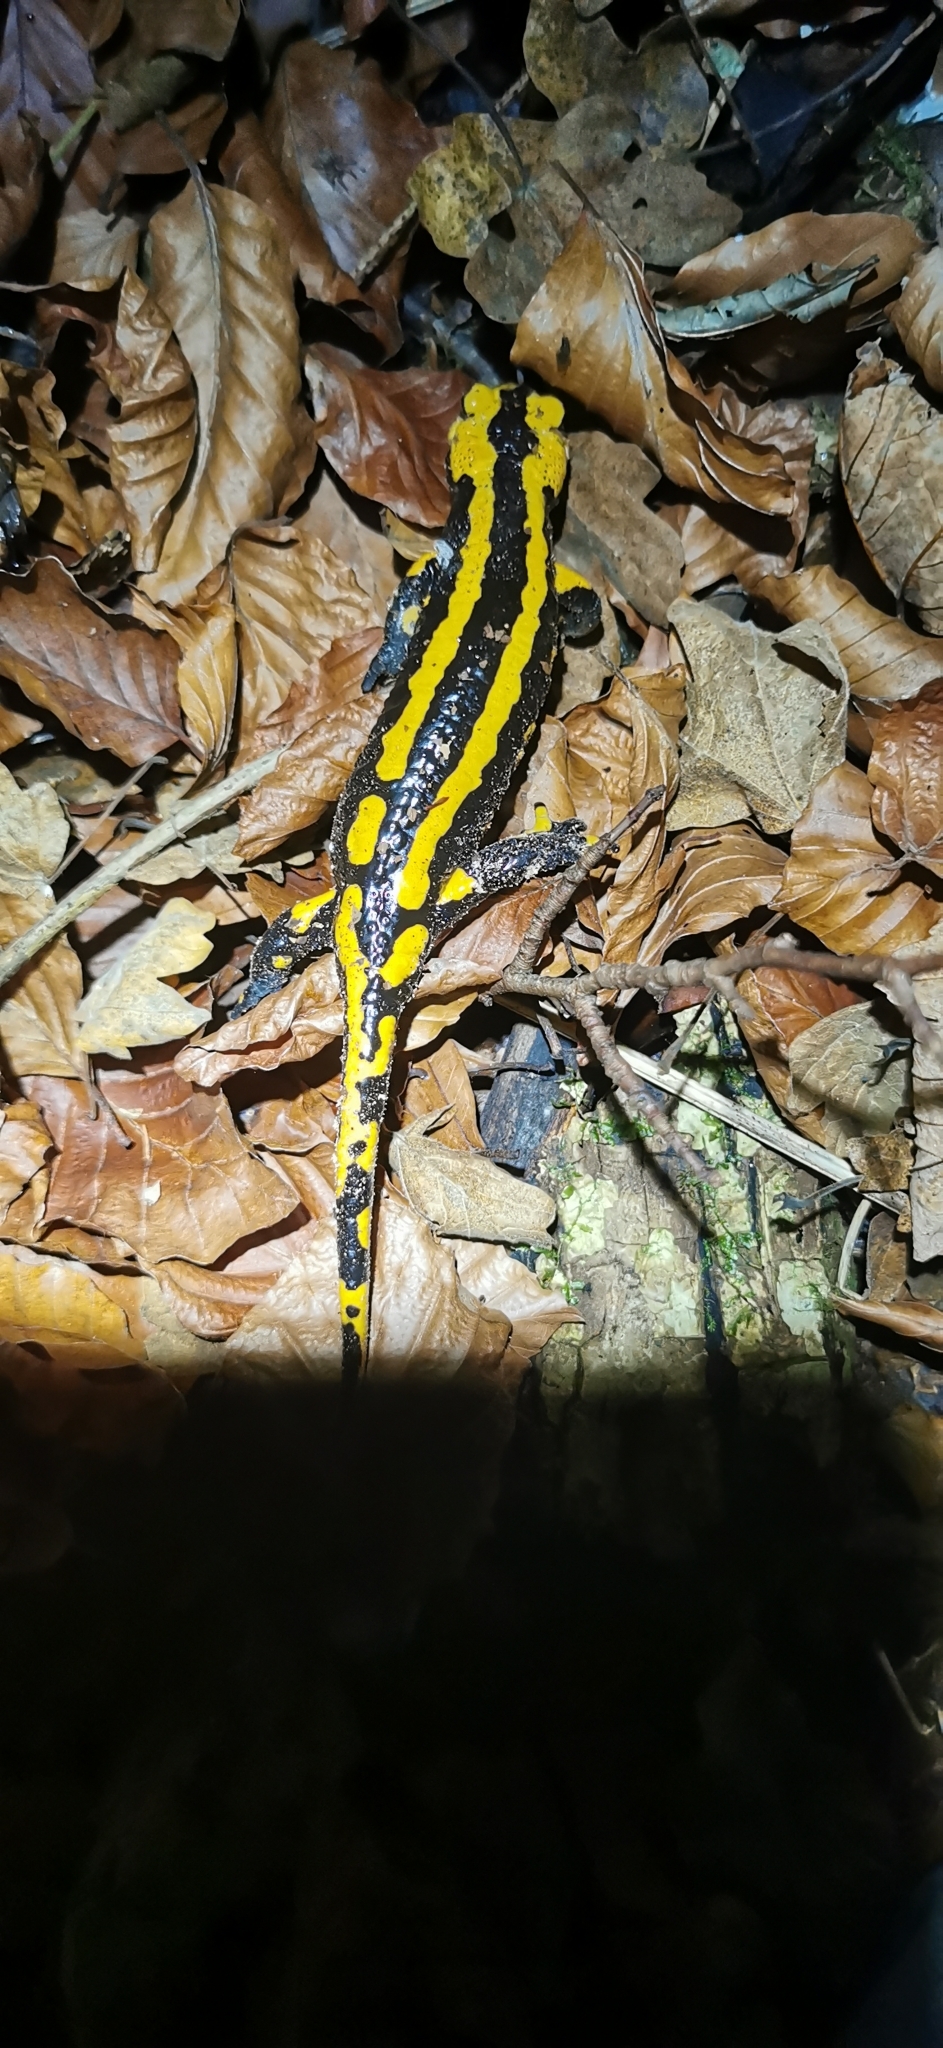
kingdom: Animalia
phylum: Chordata
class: Amphibia
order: Caudata
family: Salamandridae
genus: Salamandra
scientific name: Salamandra salamandra
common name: Fire salamander
